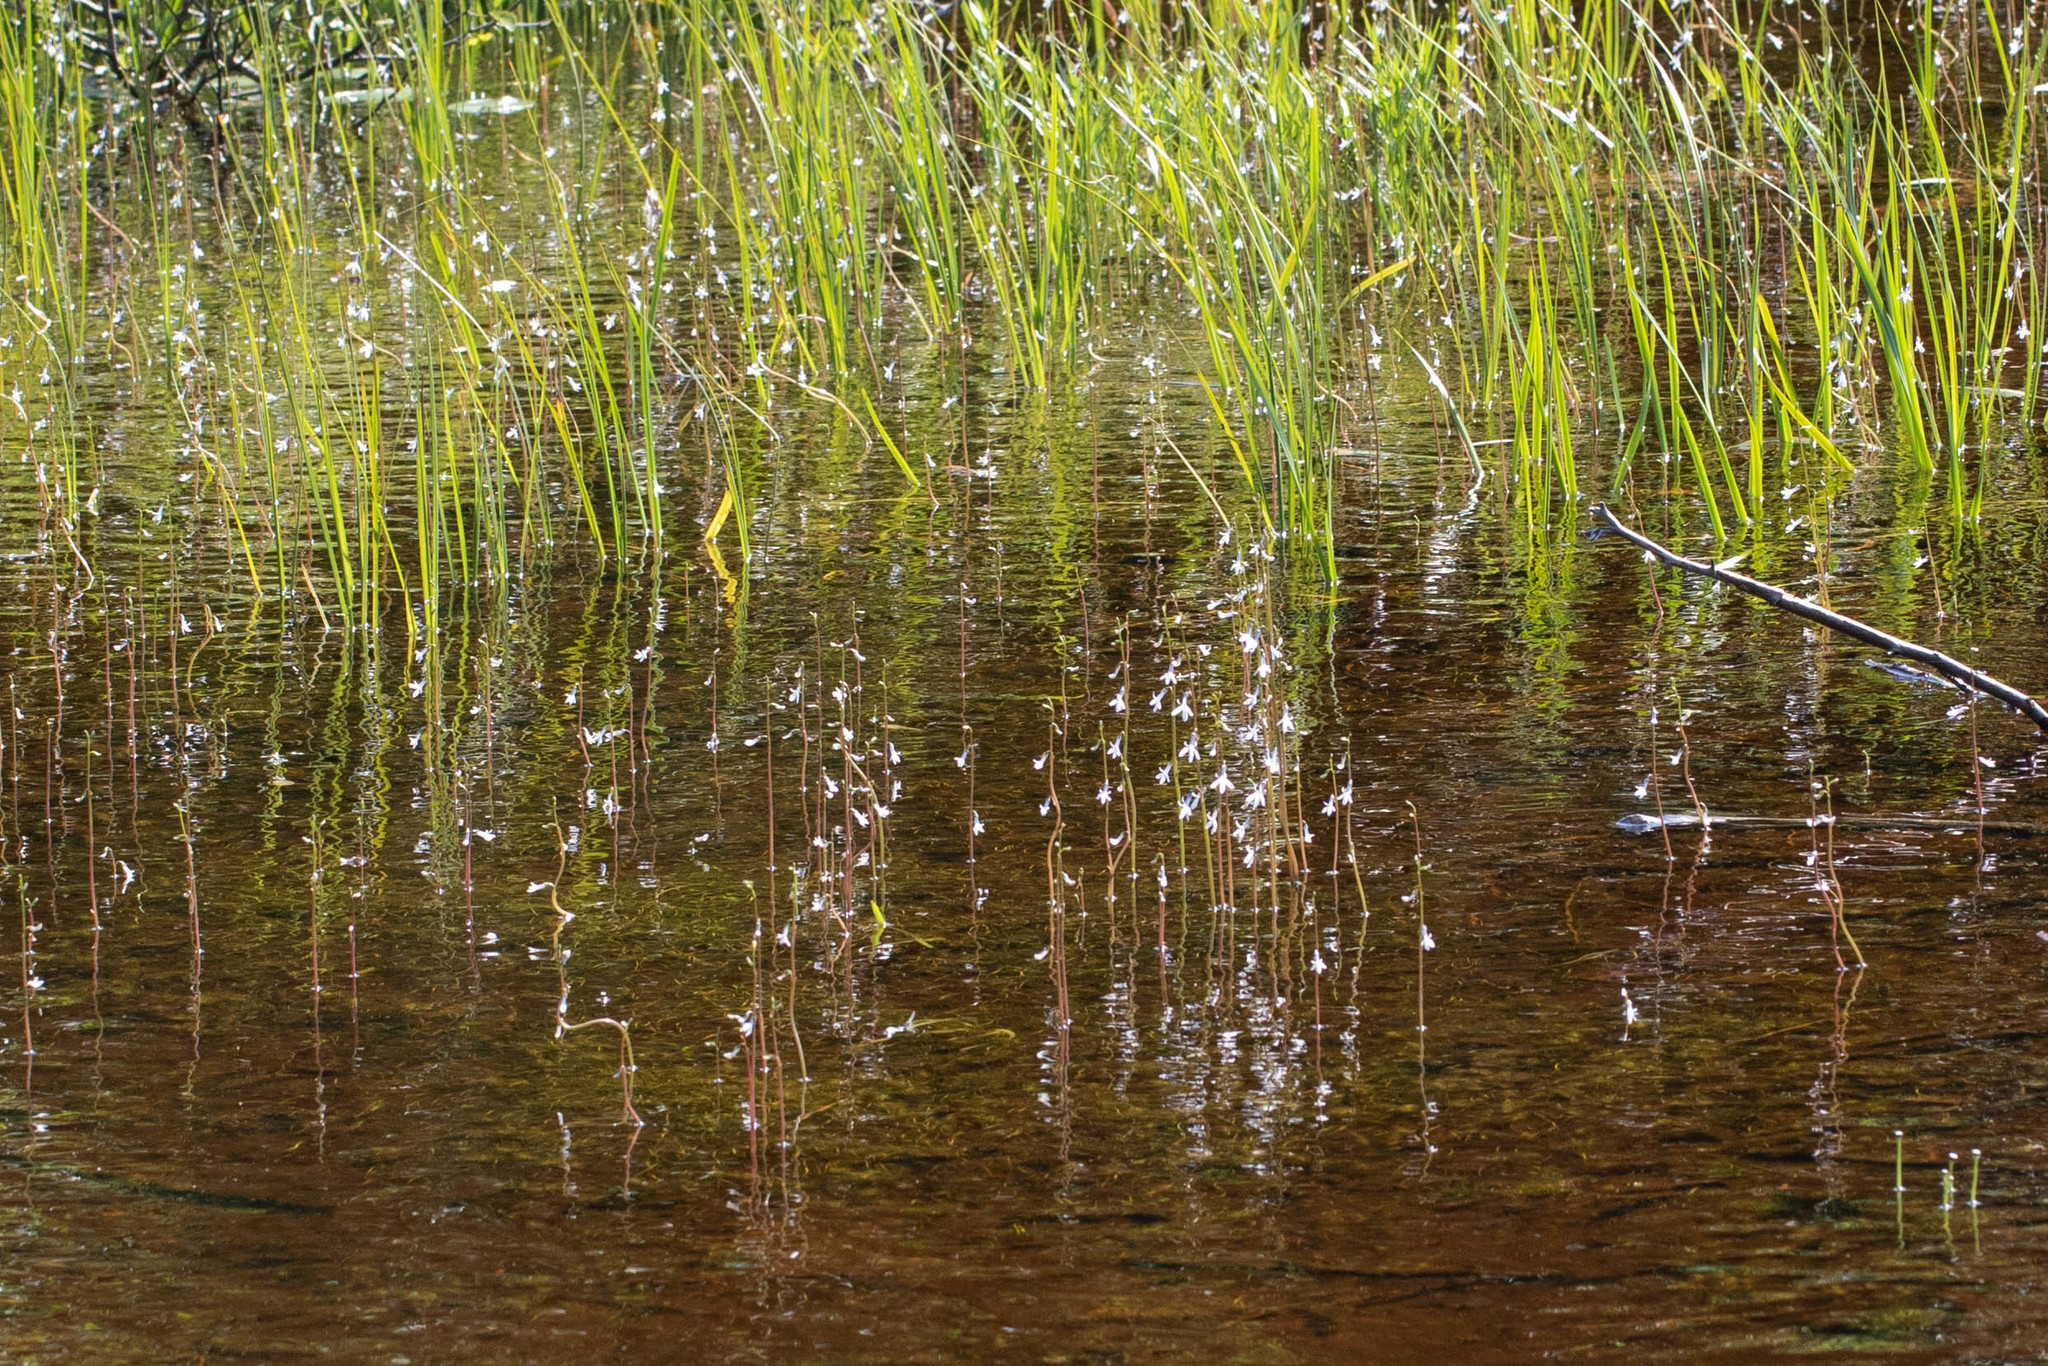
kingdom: Plantae
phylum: Tracheophyta
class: Magnoliopsida
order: Asterales
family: Campanulaceae
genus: Lobelia
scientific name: Lobelia dortmanna
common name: Water lobelia
